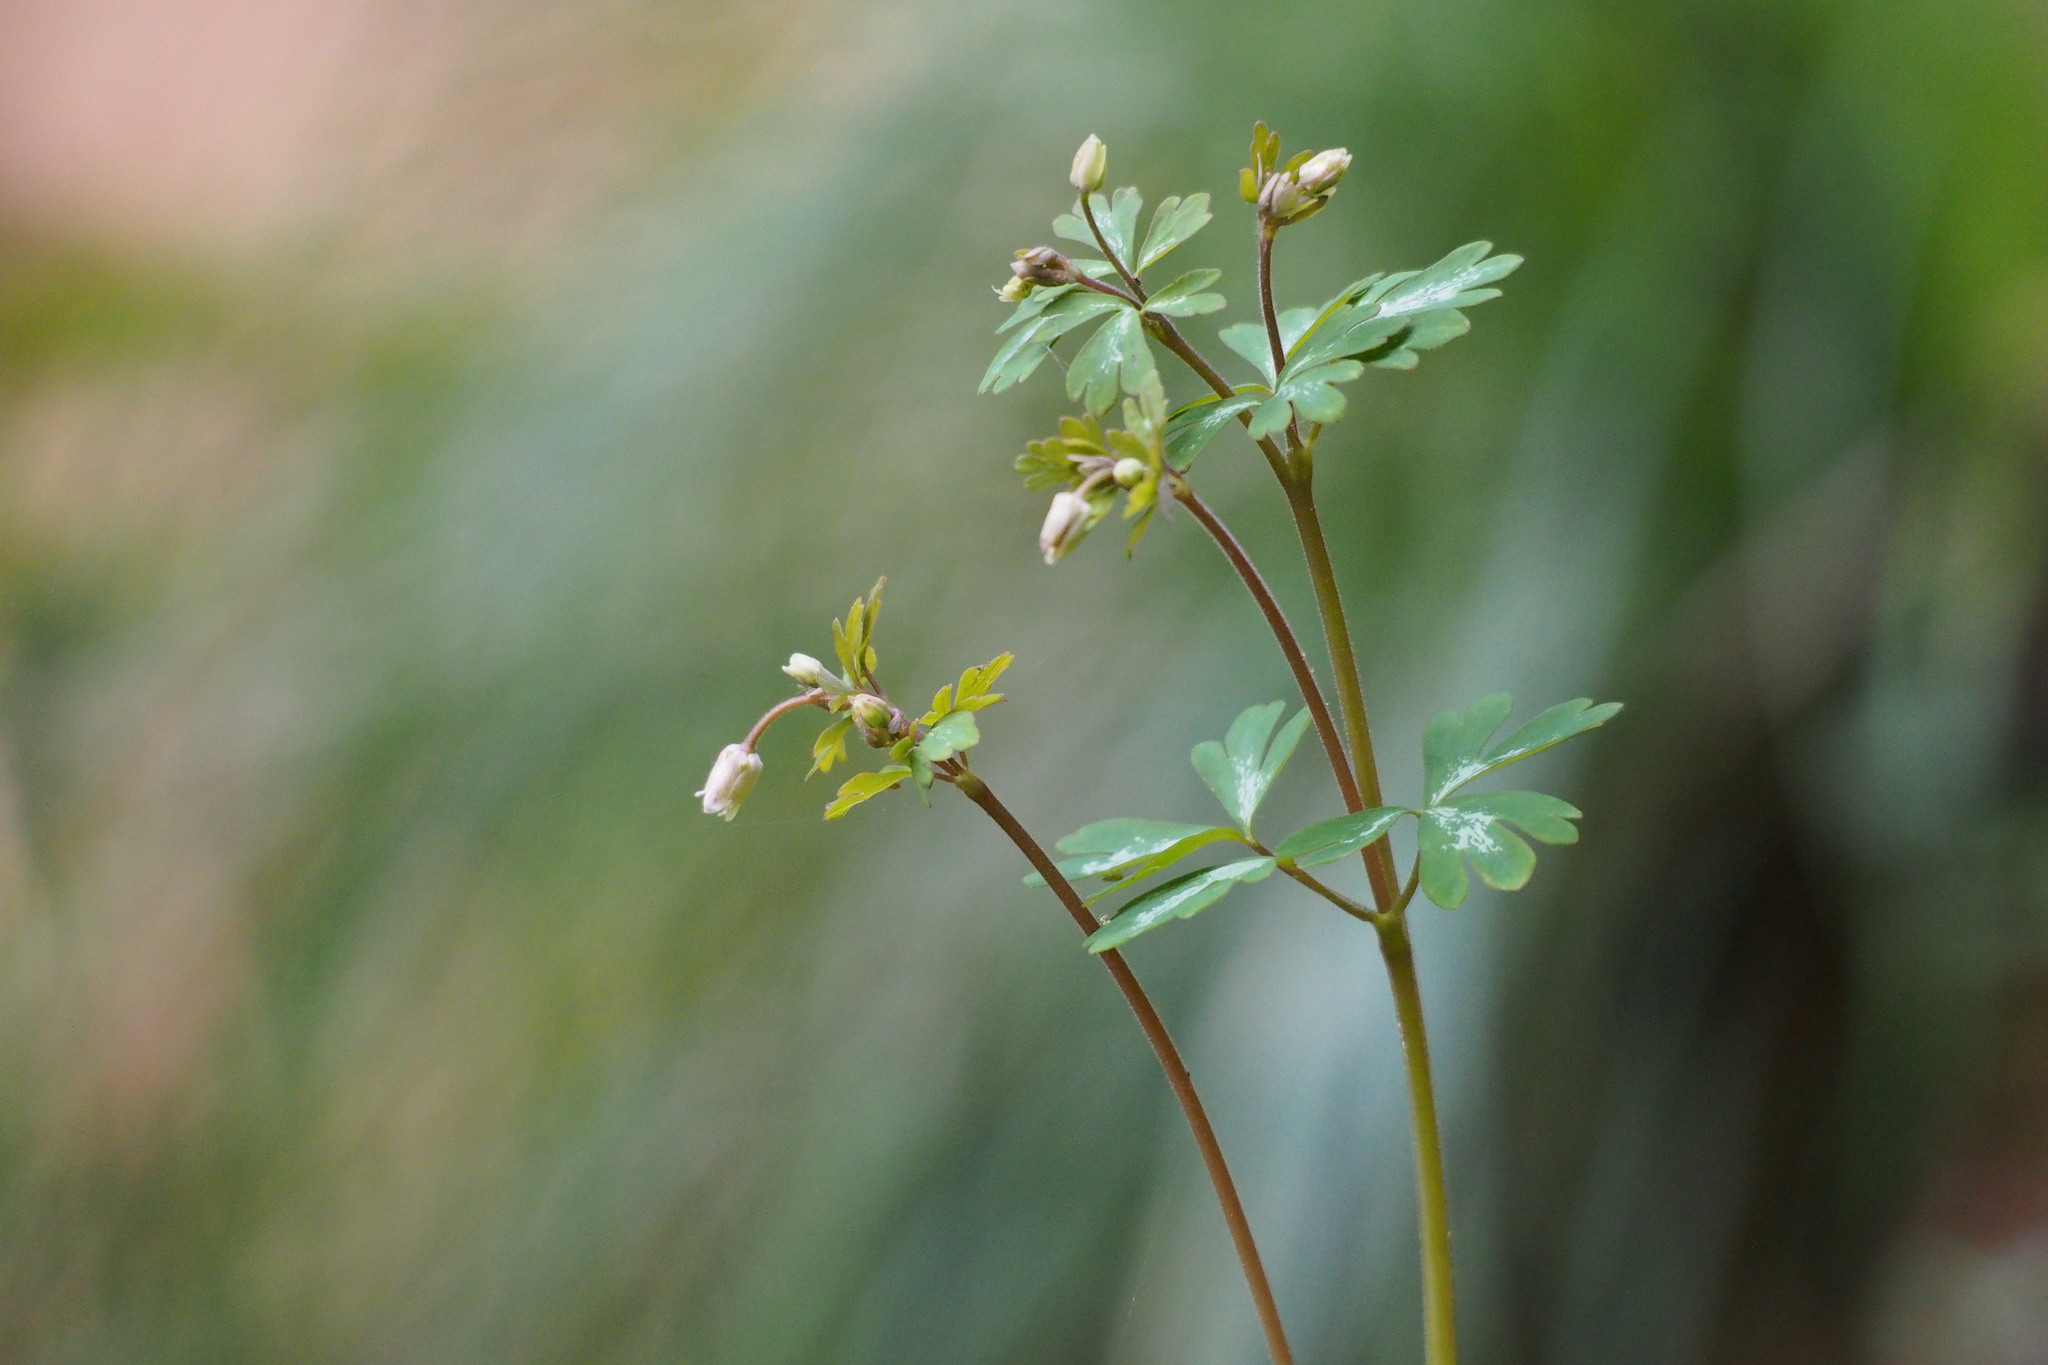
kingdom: Plantae
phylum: Tracheophyta
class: Magnoliopsida
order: Ranunculales
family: Ranunculaceae
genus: Semiaquilegia
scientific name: Semiaquilegia adoxoides
